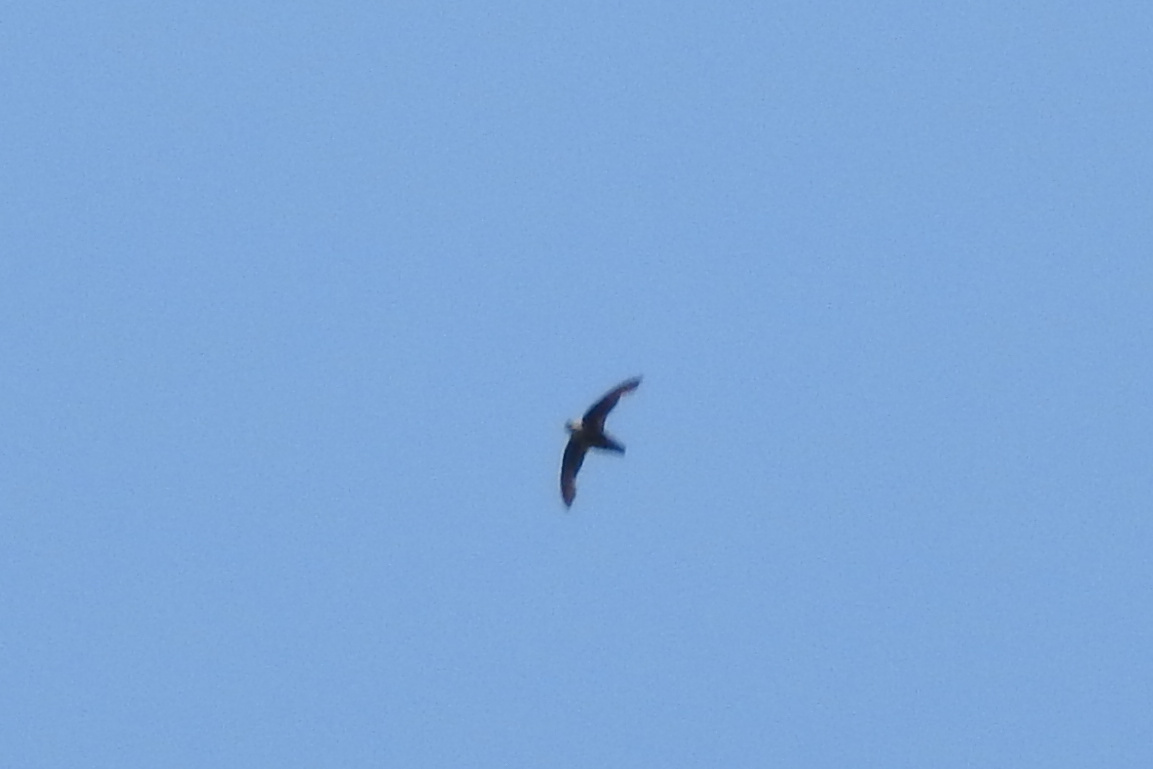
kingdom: Animalia
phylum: Chordata
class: Aves
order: Apodiformes
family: Apodidae
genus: Chaetura
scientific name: Chaetura pelagica
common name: Chimney swift
